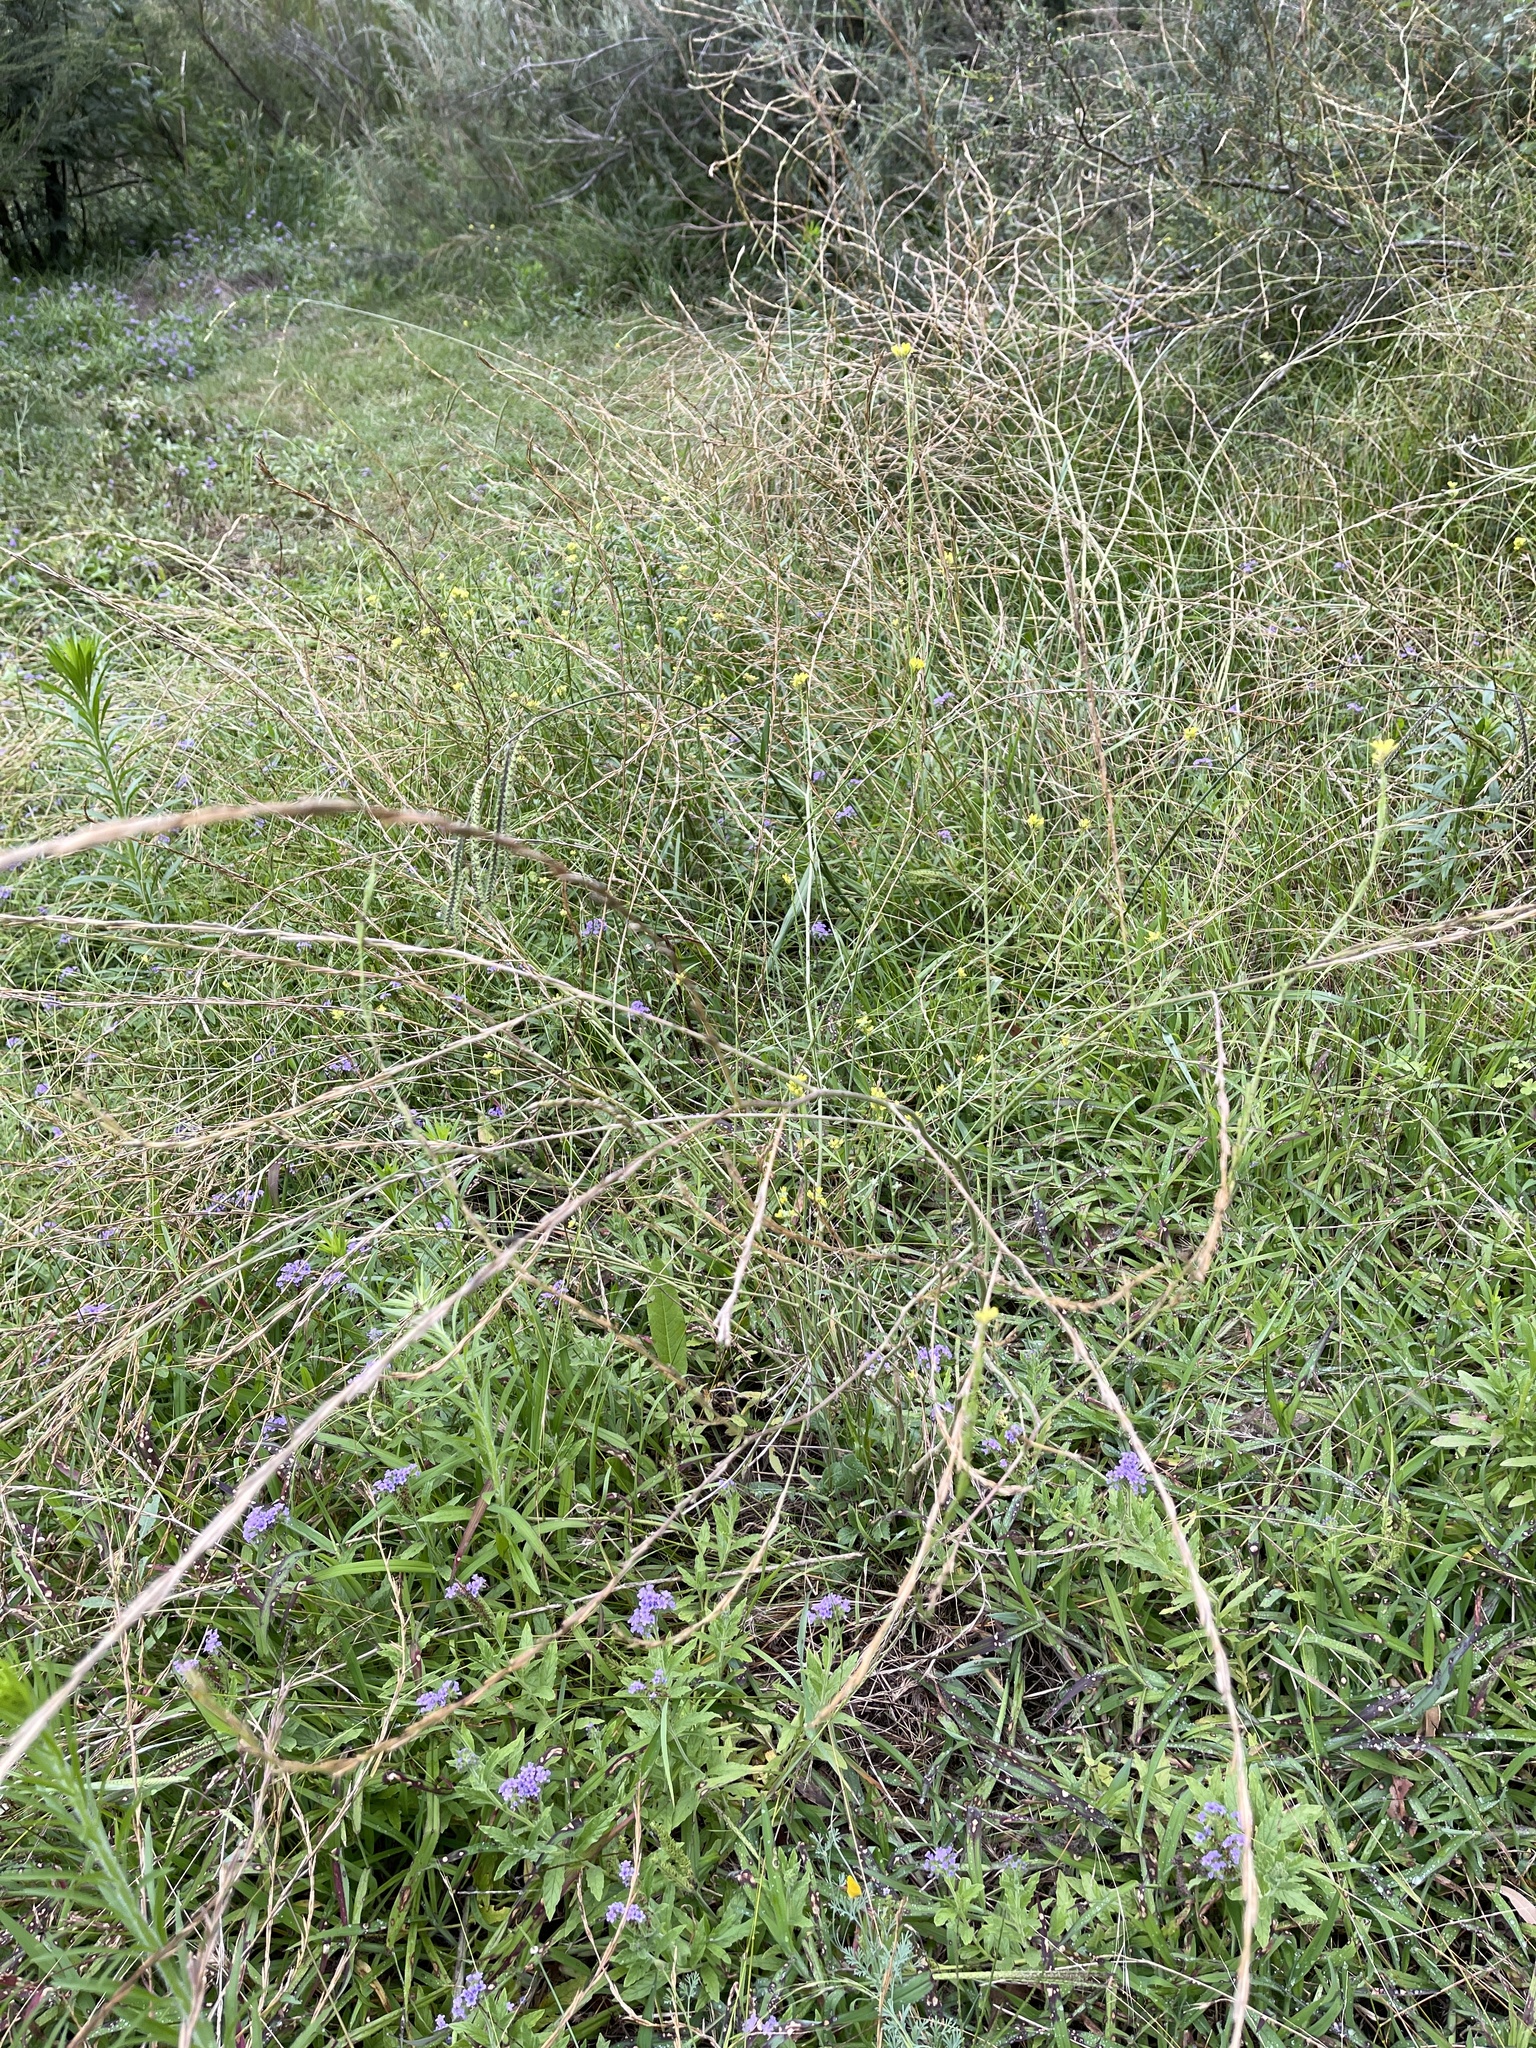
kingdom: Plantae
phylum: Tracheophyta
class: Magnoliopsida
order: Brassicales
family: Brassicaceae
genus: Hirschfeldia
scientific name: Hirschfeldia incana
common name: Hoary mustard
